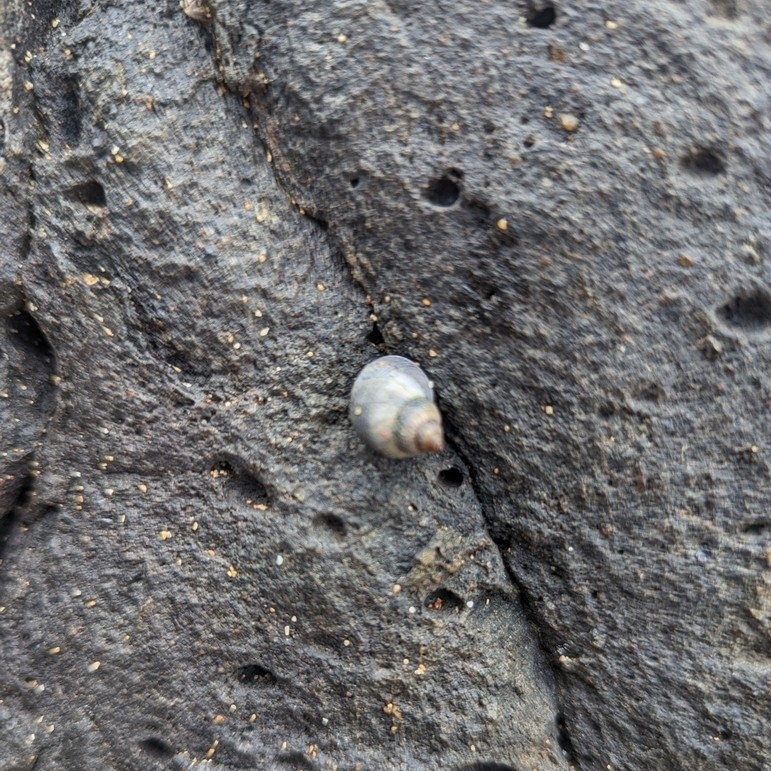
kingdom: Animalia
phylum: Mollusca
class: Gastropoda
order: Littorinimorpha
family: Littorinidae
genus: Littoraria
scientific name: Littoraria pintado
